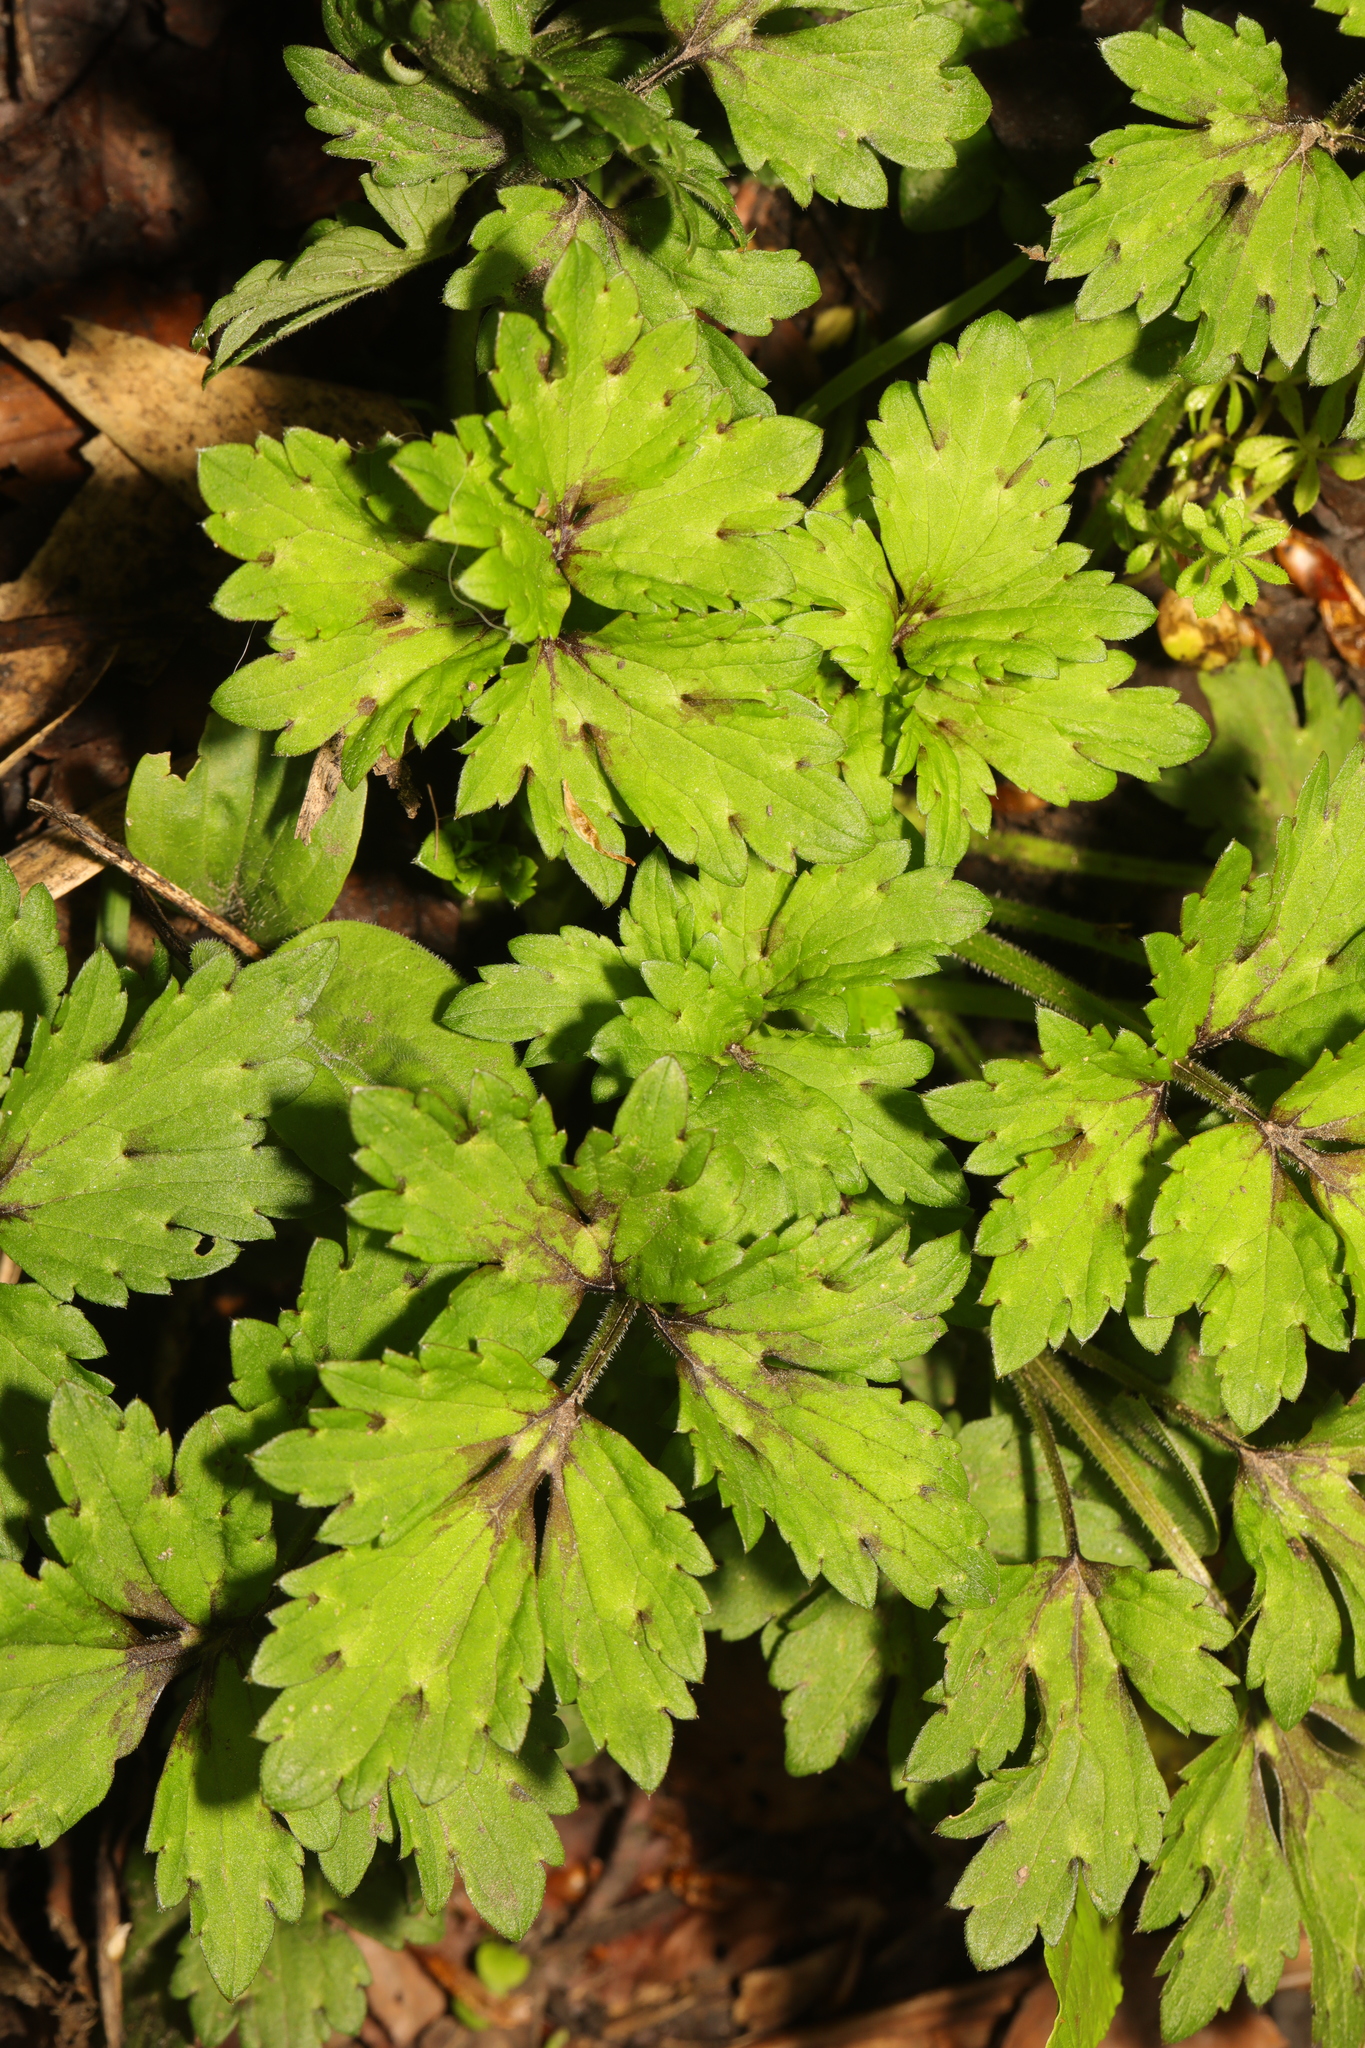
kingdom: Plantae
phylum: Tracheophyta
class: Magnoliopsida
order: Ranunculales
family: Ranunculaceae
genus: Ranunculus
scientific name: Ranunculus repens
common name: Creeping buttercup
